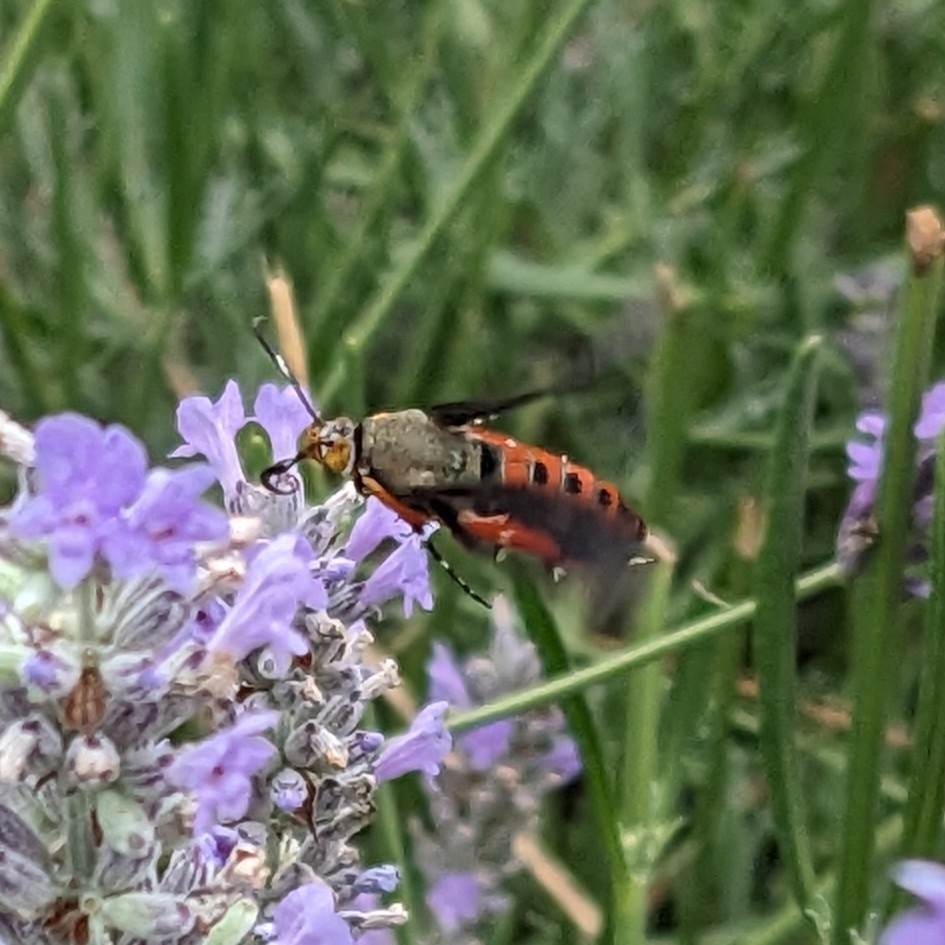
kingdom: Animalia
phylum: Arthropoda
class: Insecta
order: Lepidoptera
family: Sesiidae
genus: Eichlinia
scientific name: Eichlinia cucurbitae
